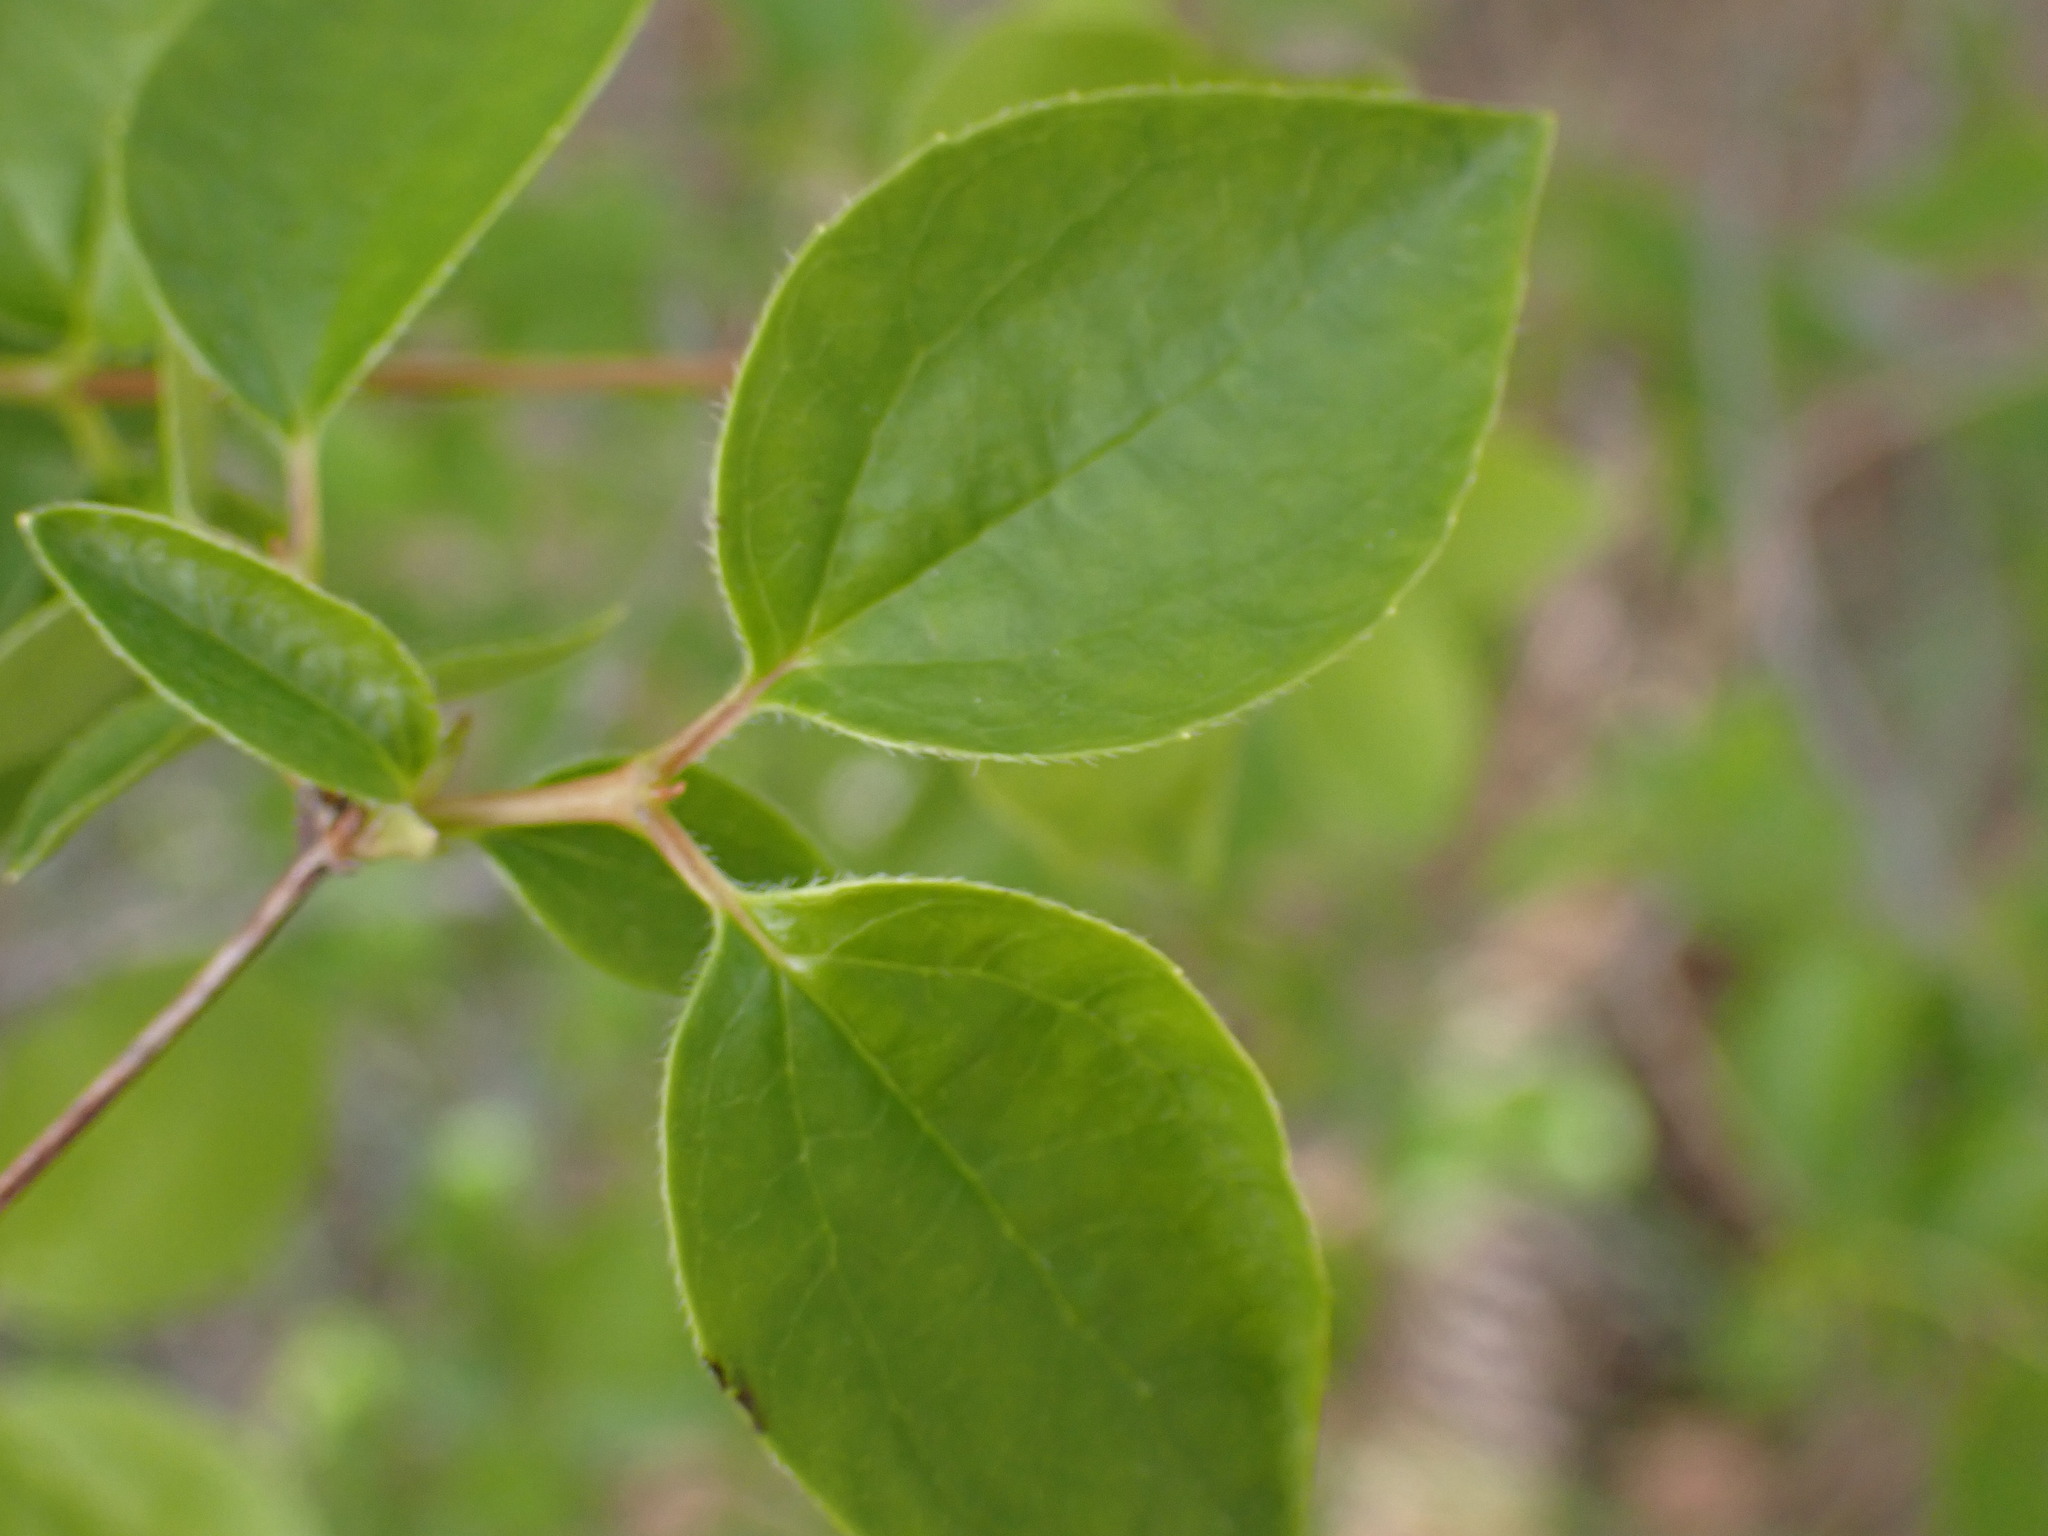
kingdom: Plantae
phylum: Tracheophyta
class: Magnoliopsida
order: Cornales
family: Hydrangeaceae
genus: Philadelphus
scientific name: Philadelphus lewisii
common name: Lewis's mock orange
